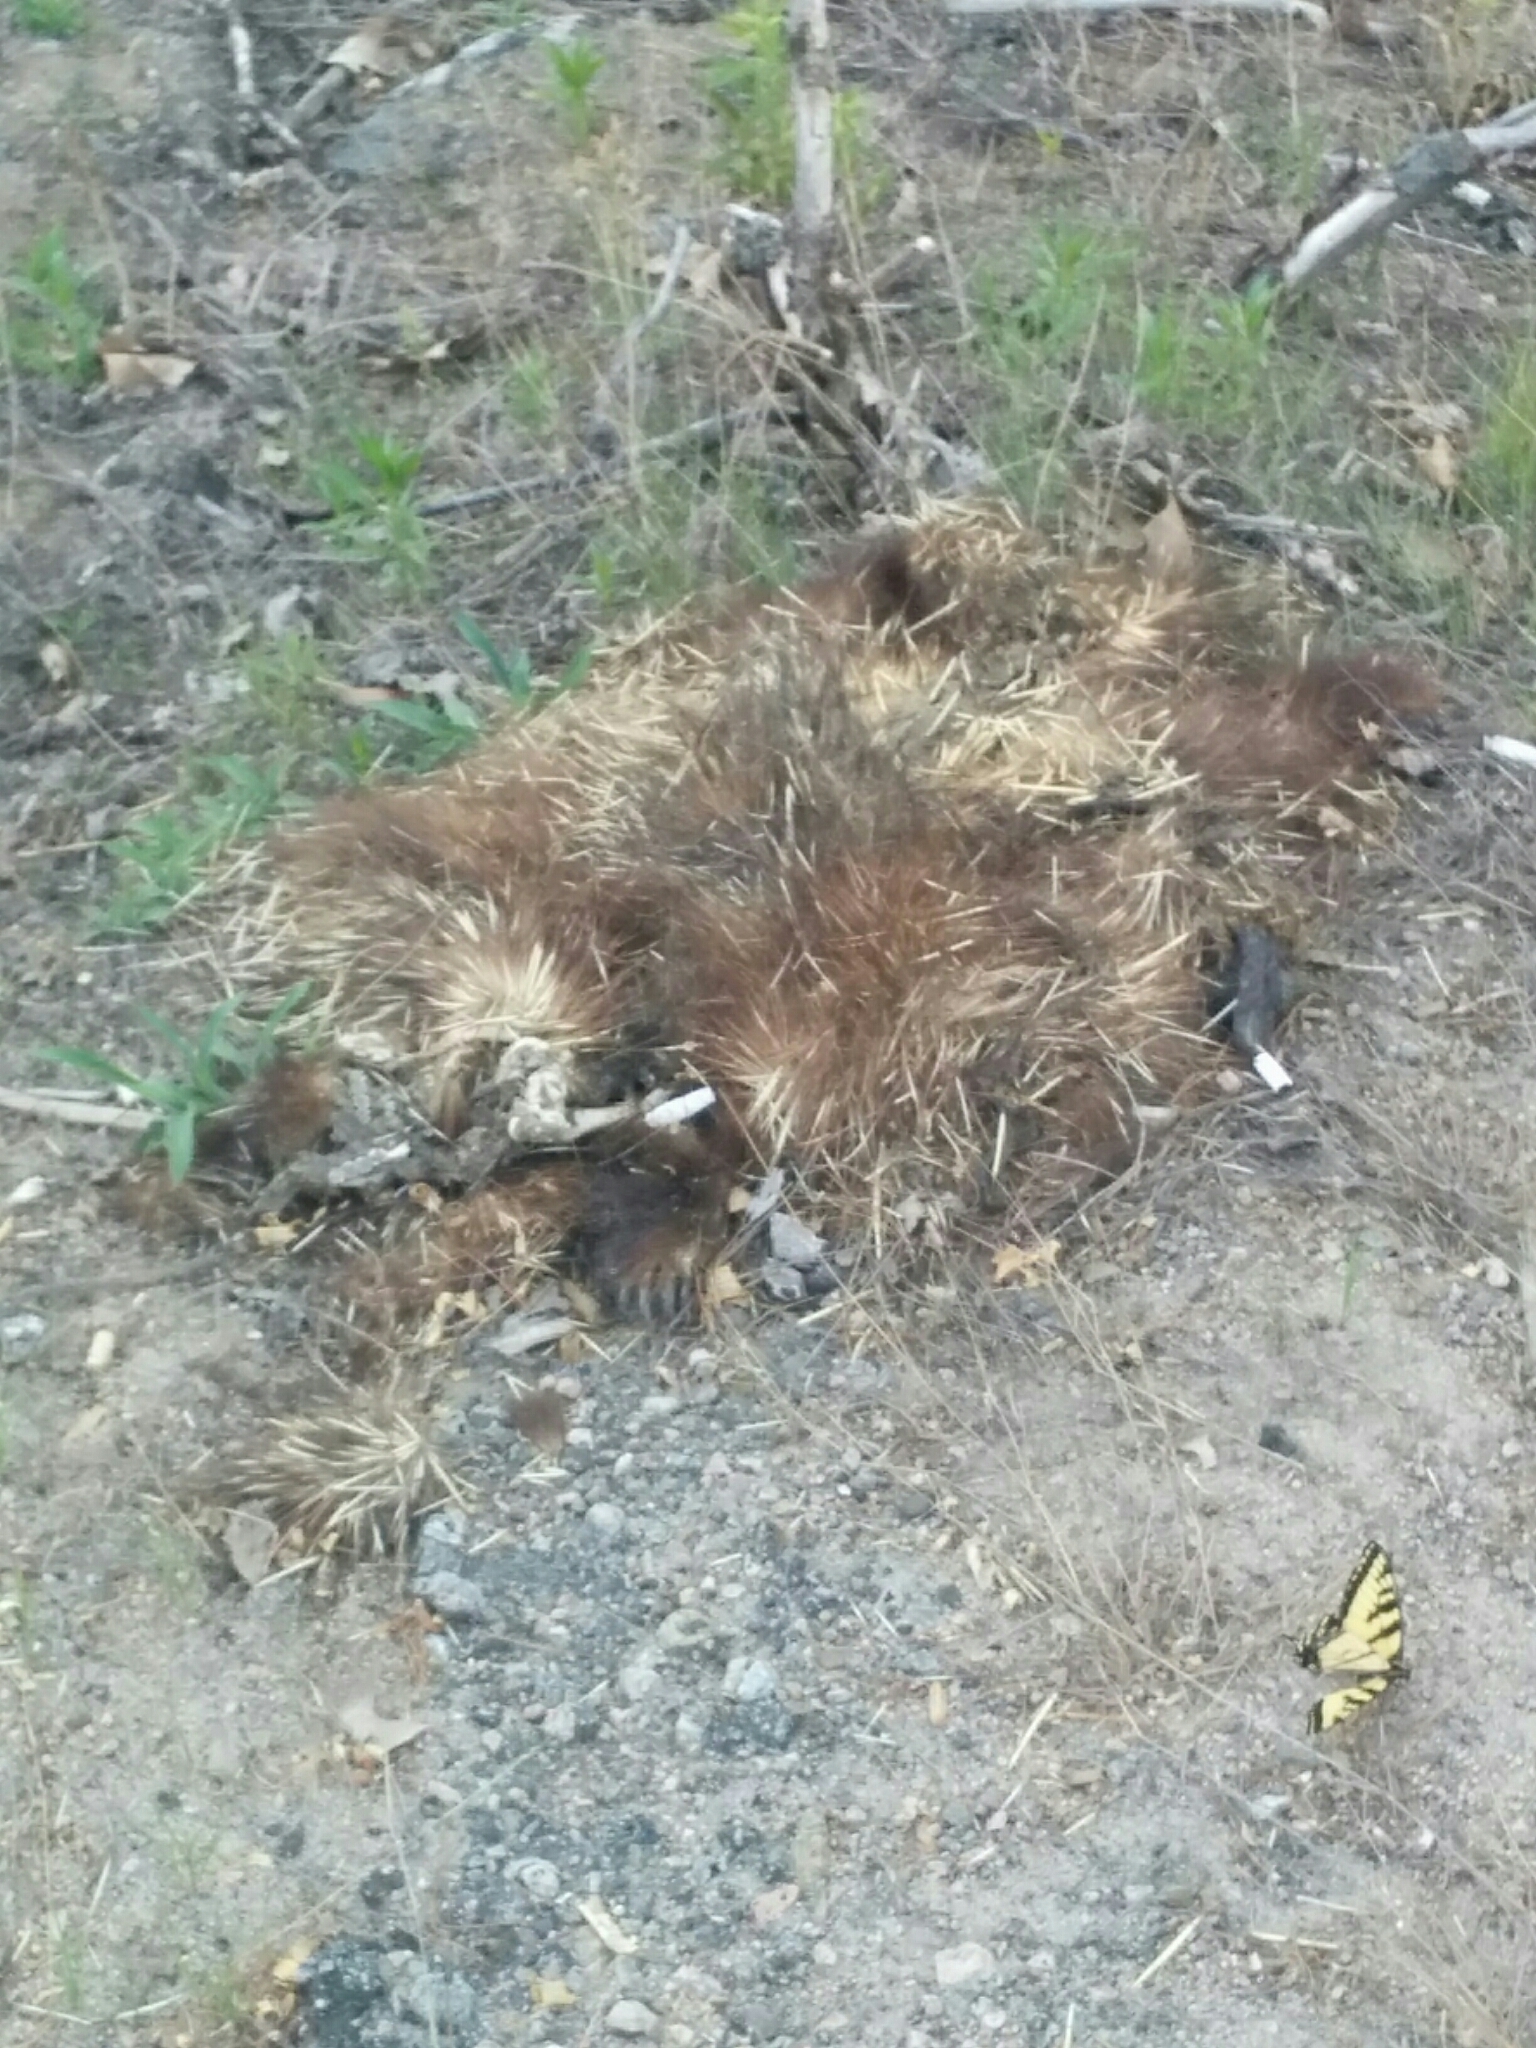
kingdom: Animalia
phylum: Chordata
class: Mammalia
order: Rodentia
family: Erethizontidae
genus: Erethizon
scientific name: Erethizon dorsatus
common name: North american porcupine
